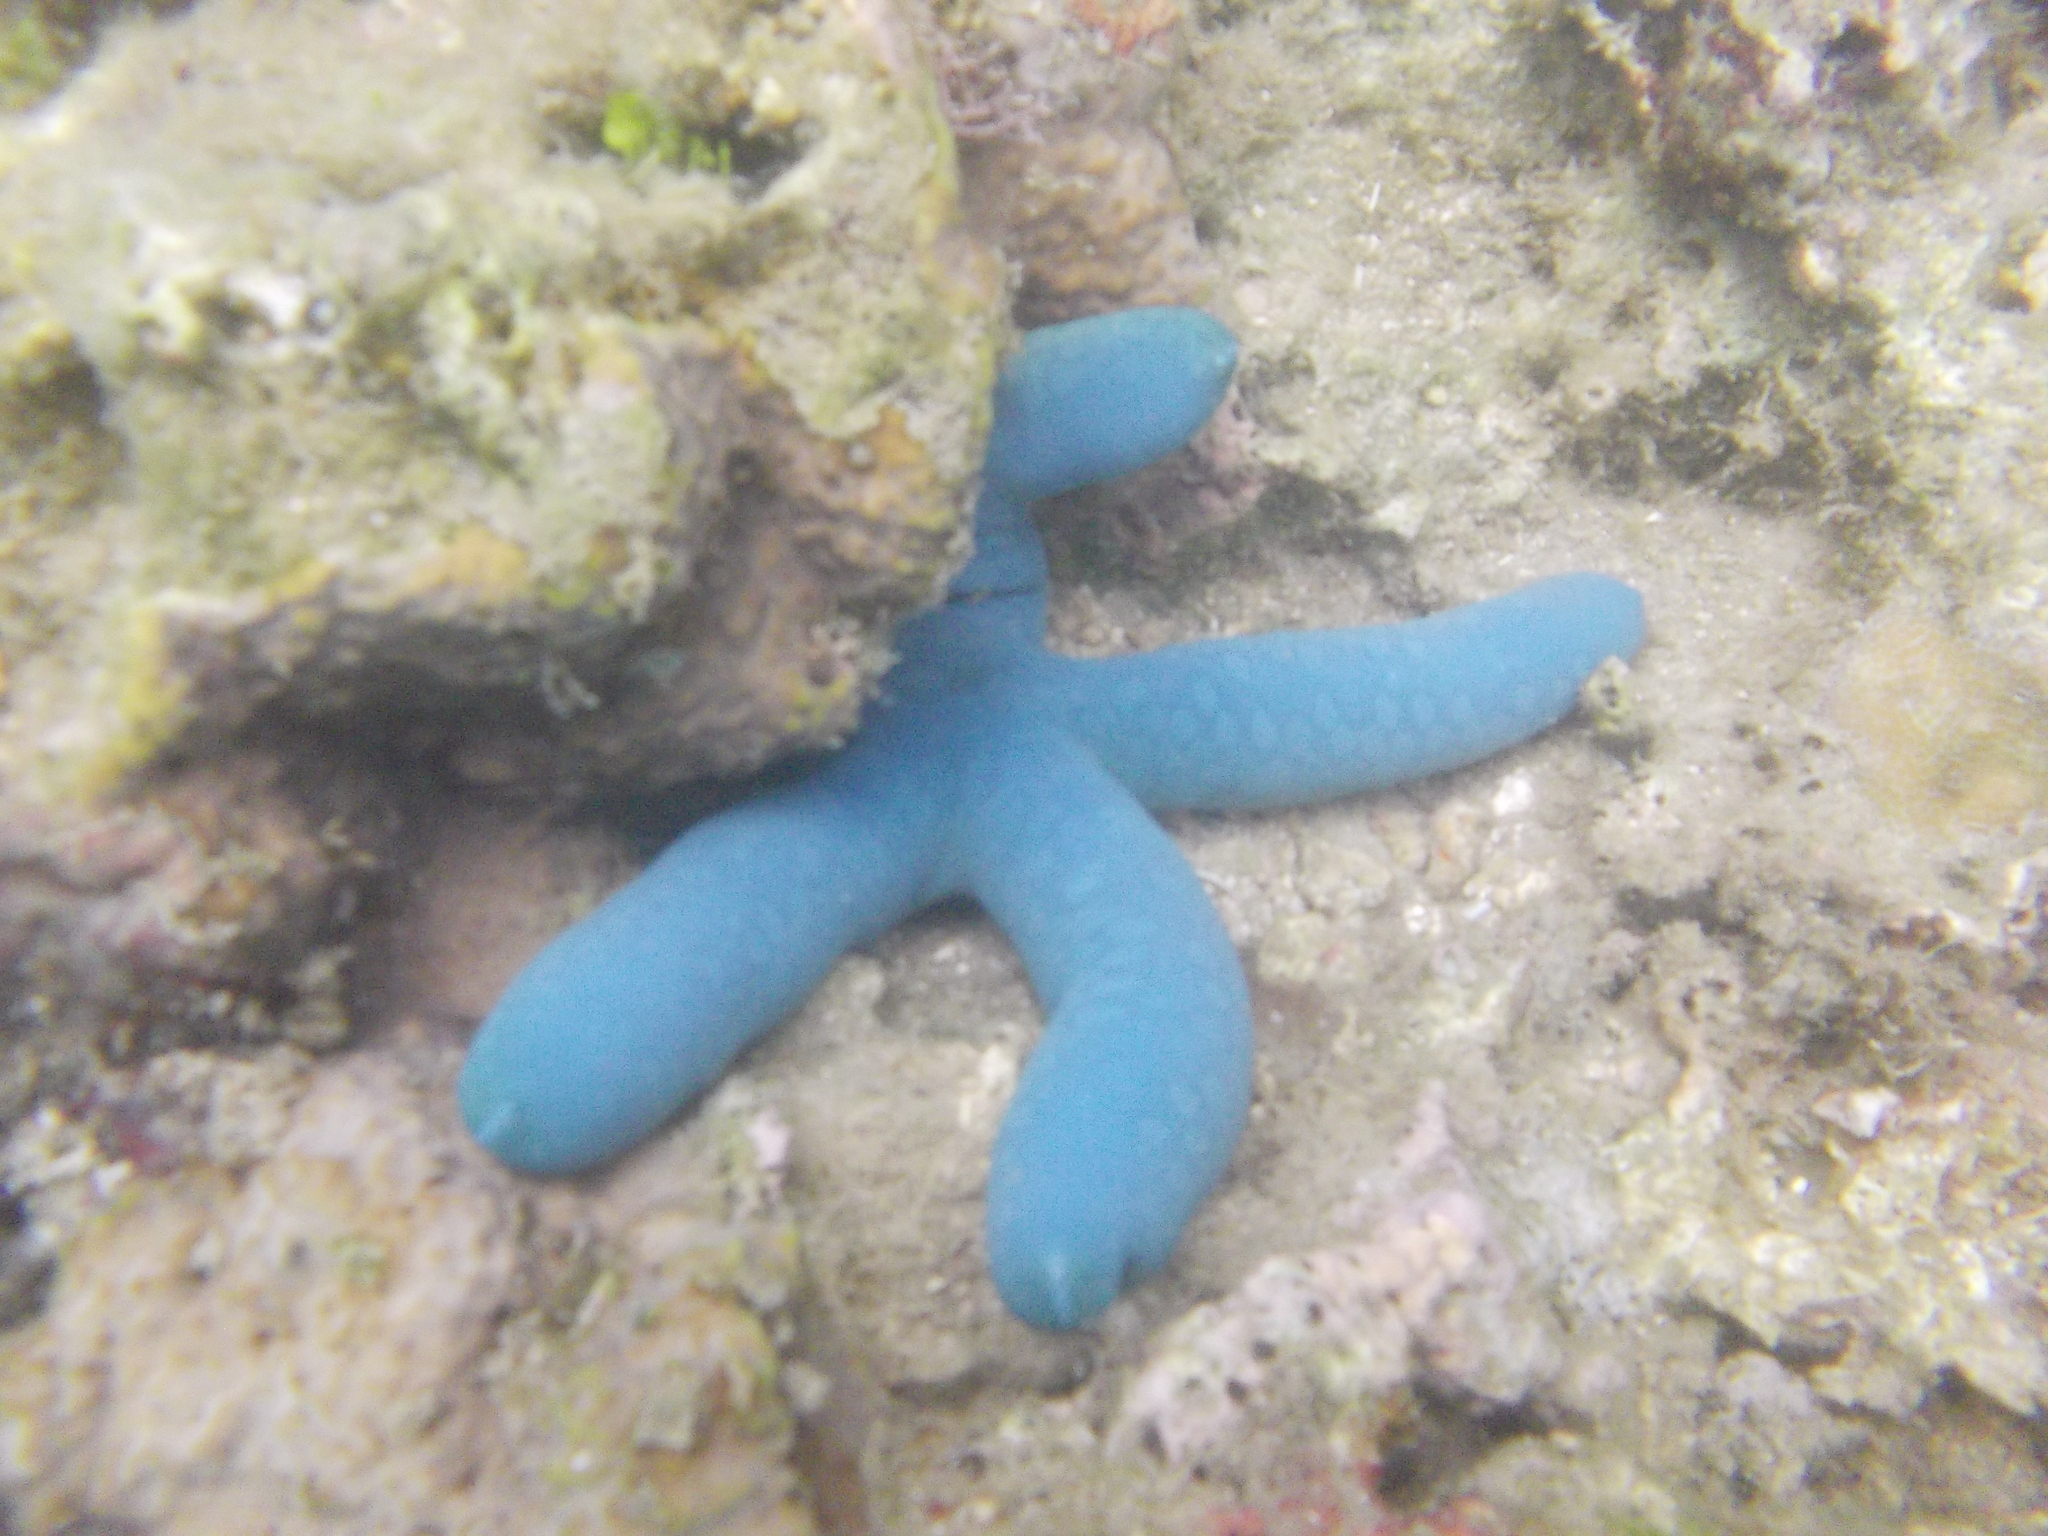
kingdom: Animalia
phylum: Echinodermata
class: Asteroidea
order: Valvatida
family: Ophidiasteridae
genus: Linckia
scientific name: Linckia laevigata
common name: Azure sea star
